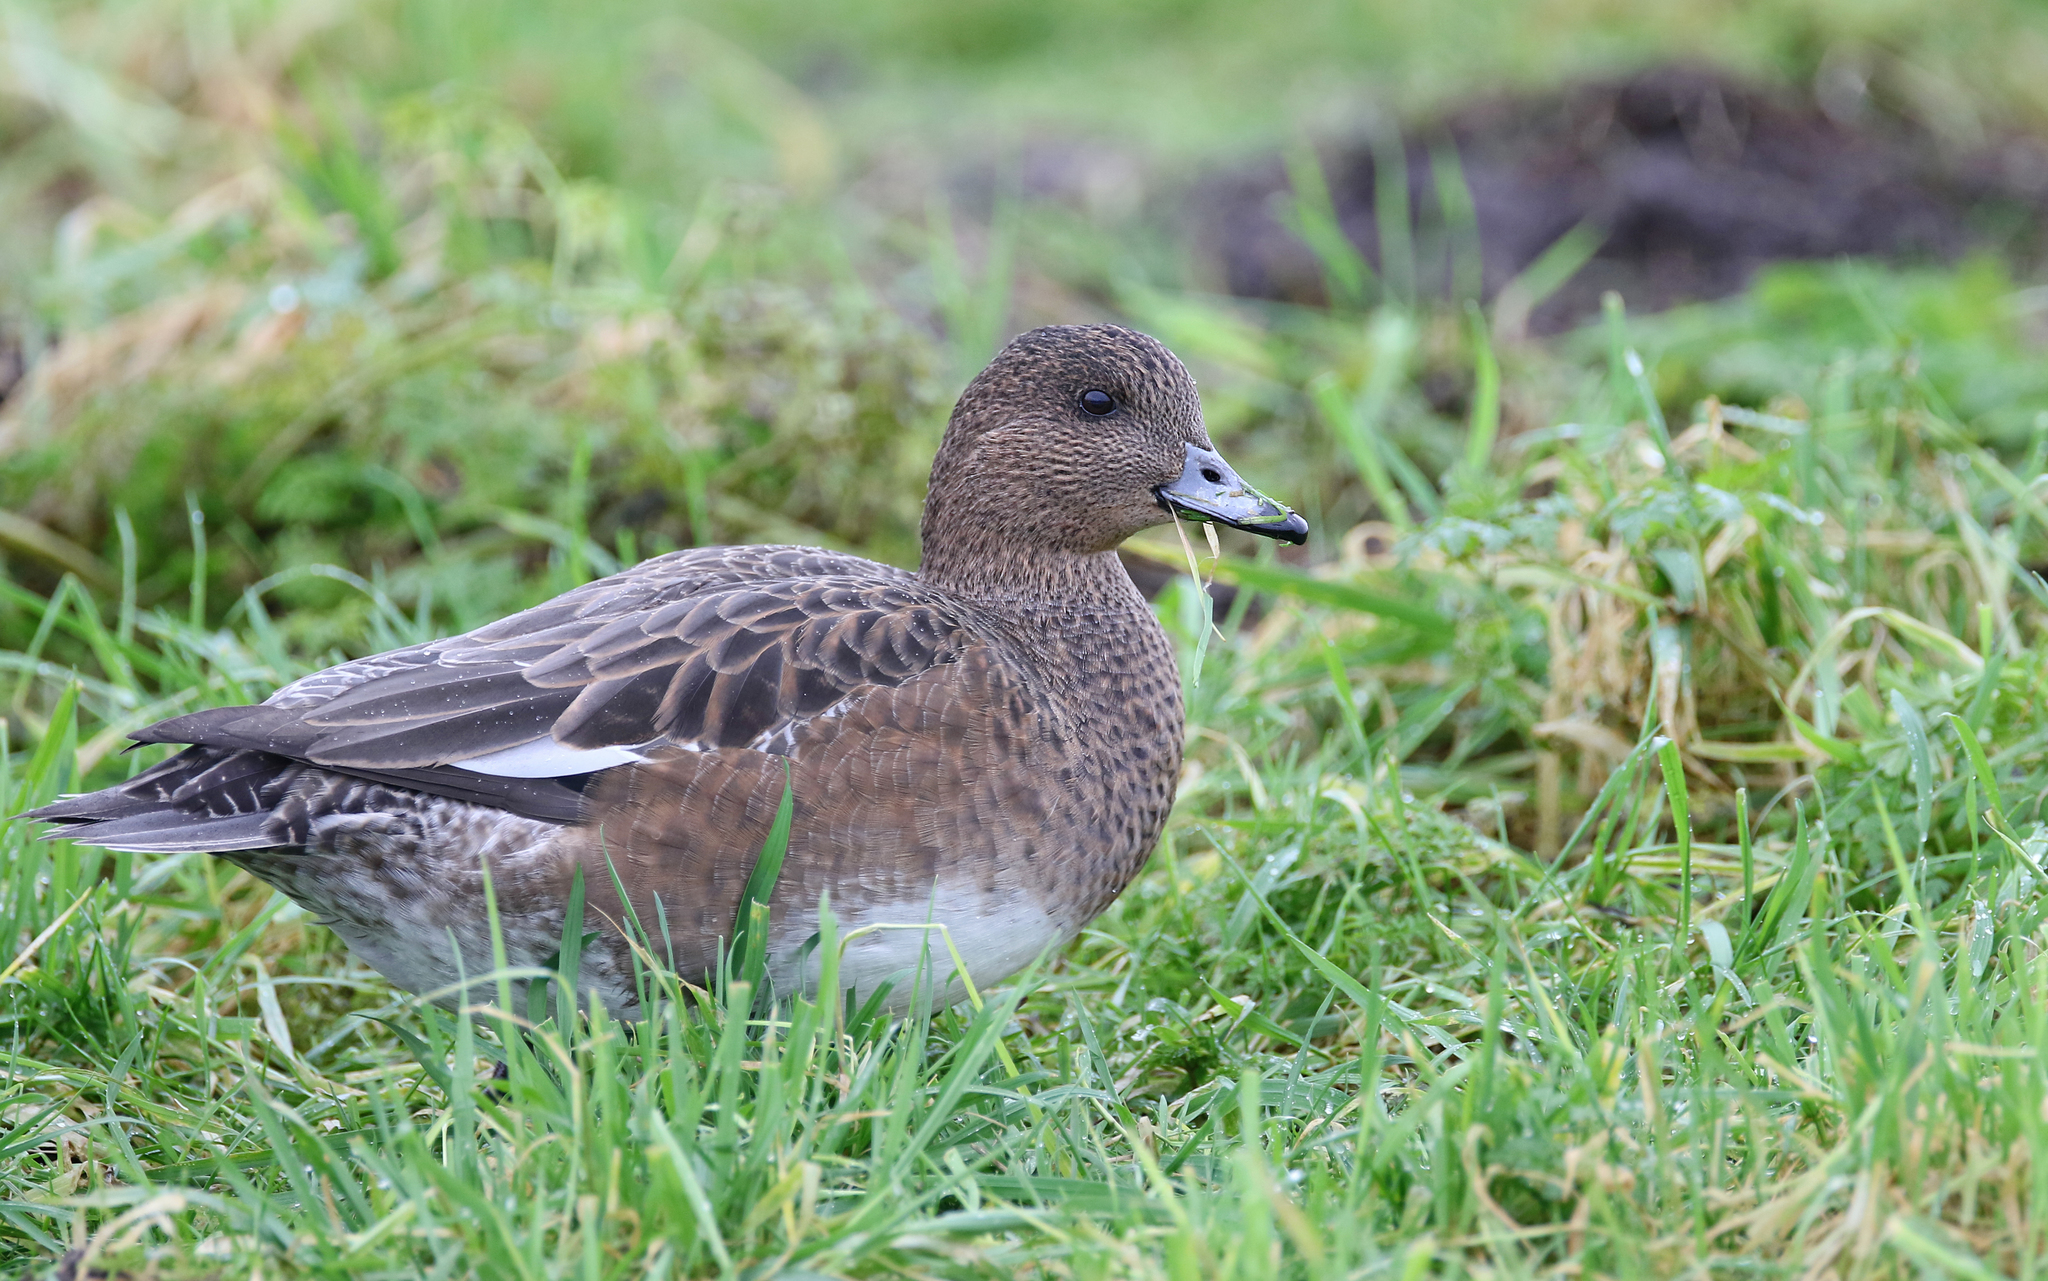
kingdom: Animalia
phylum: Chordata
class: Aves
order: Anseriformes
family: Anatidae
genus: Mareca
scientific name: Mareca penelope
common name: Eurasian wigeon
